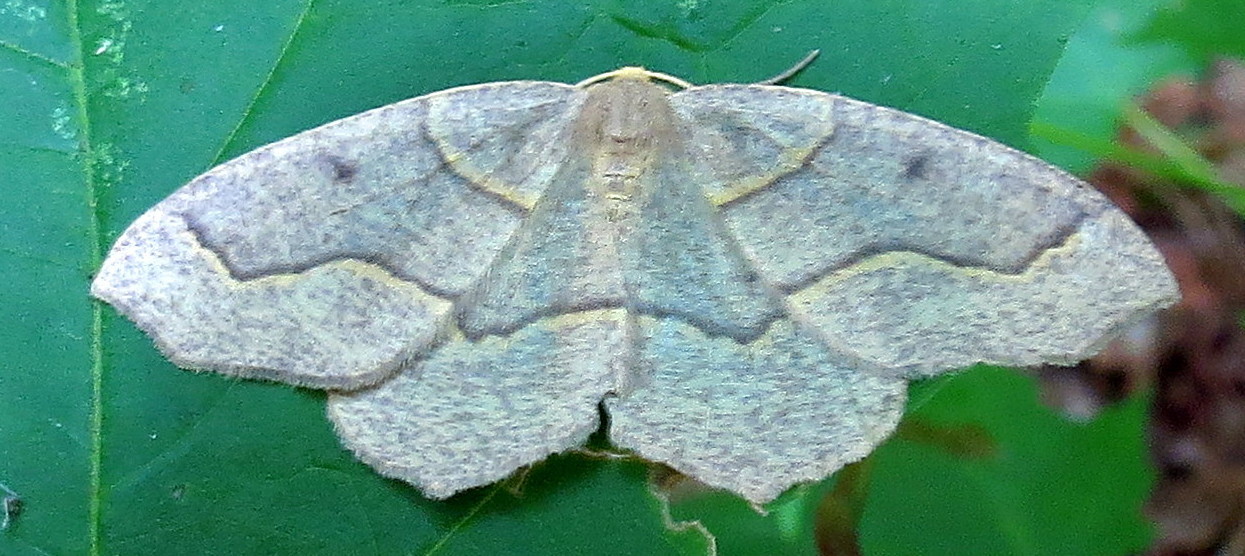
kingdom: Animalia
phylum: Arthropoda
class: Insecta
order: Lepidoptera
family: Geometridae
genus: Lambdina
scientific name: Lambdina fiscellaria
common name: Hemlock looper
